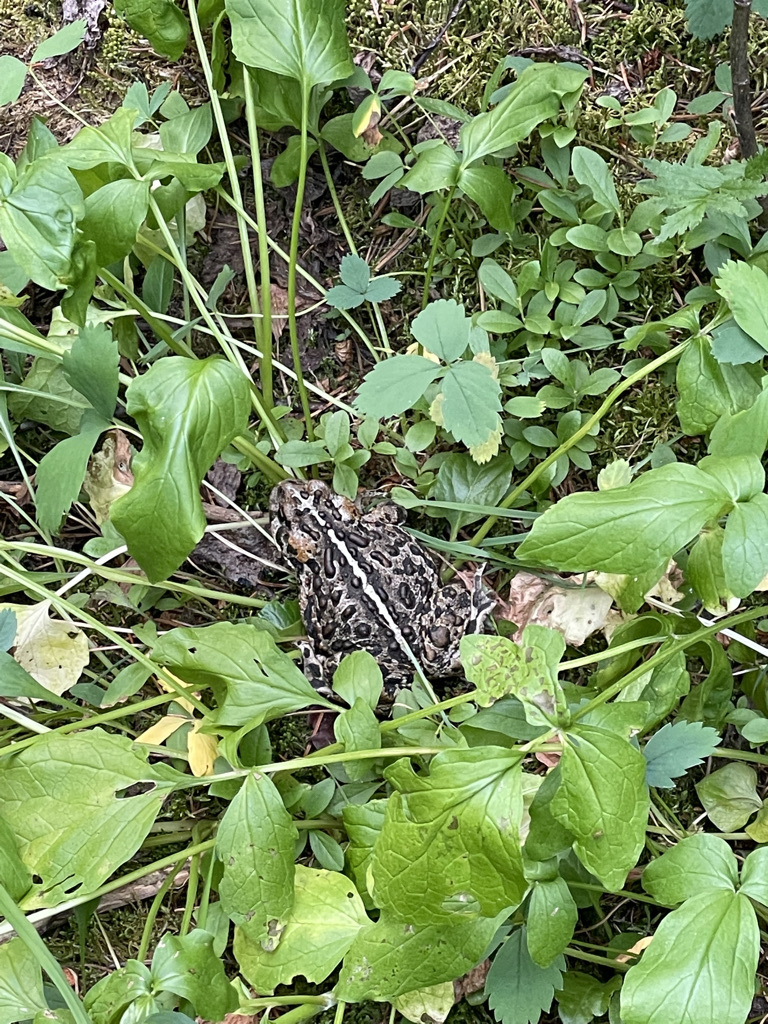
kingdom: Animalia
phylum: Chordata
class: Amphibia
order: Anura
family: Bufonidae
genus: Anaxyrus
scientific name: Anaxyrus boreas
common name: Western toad
